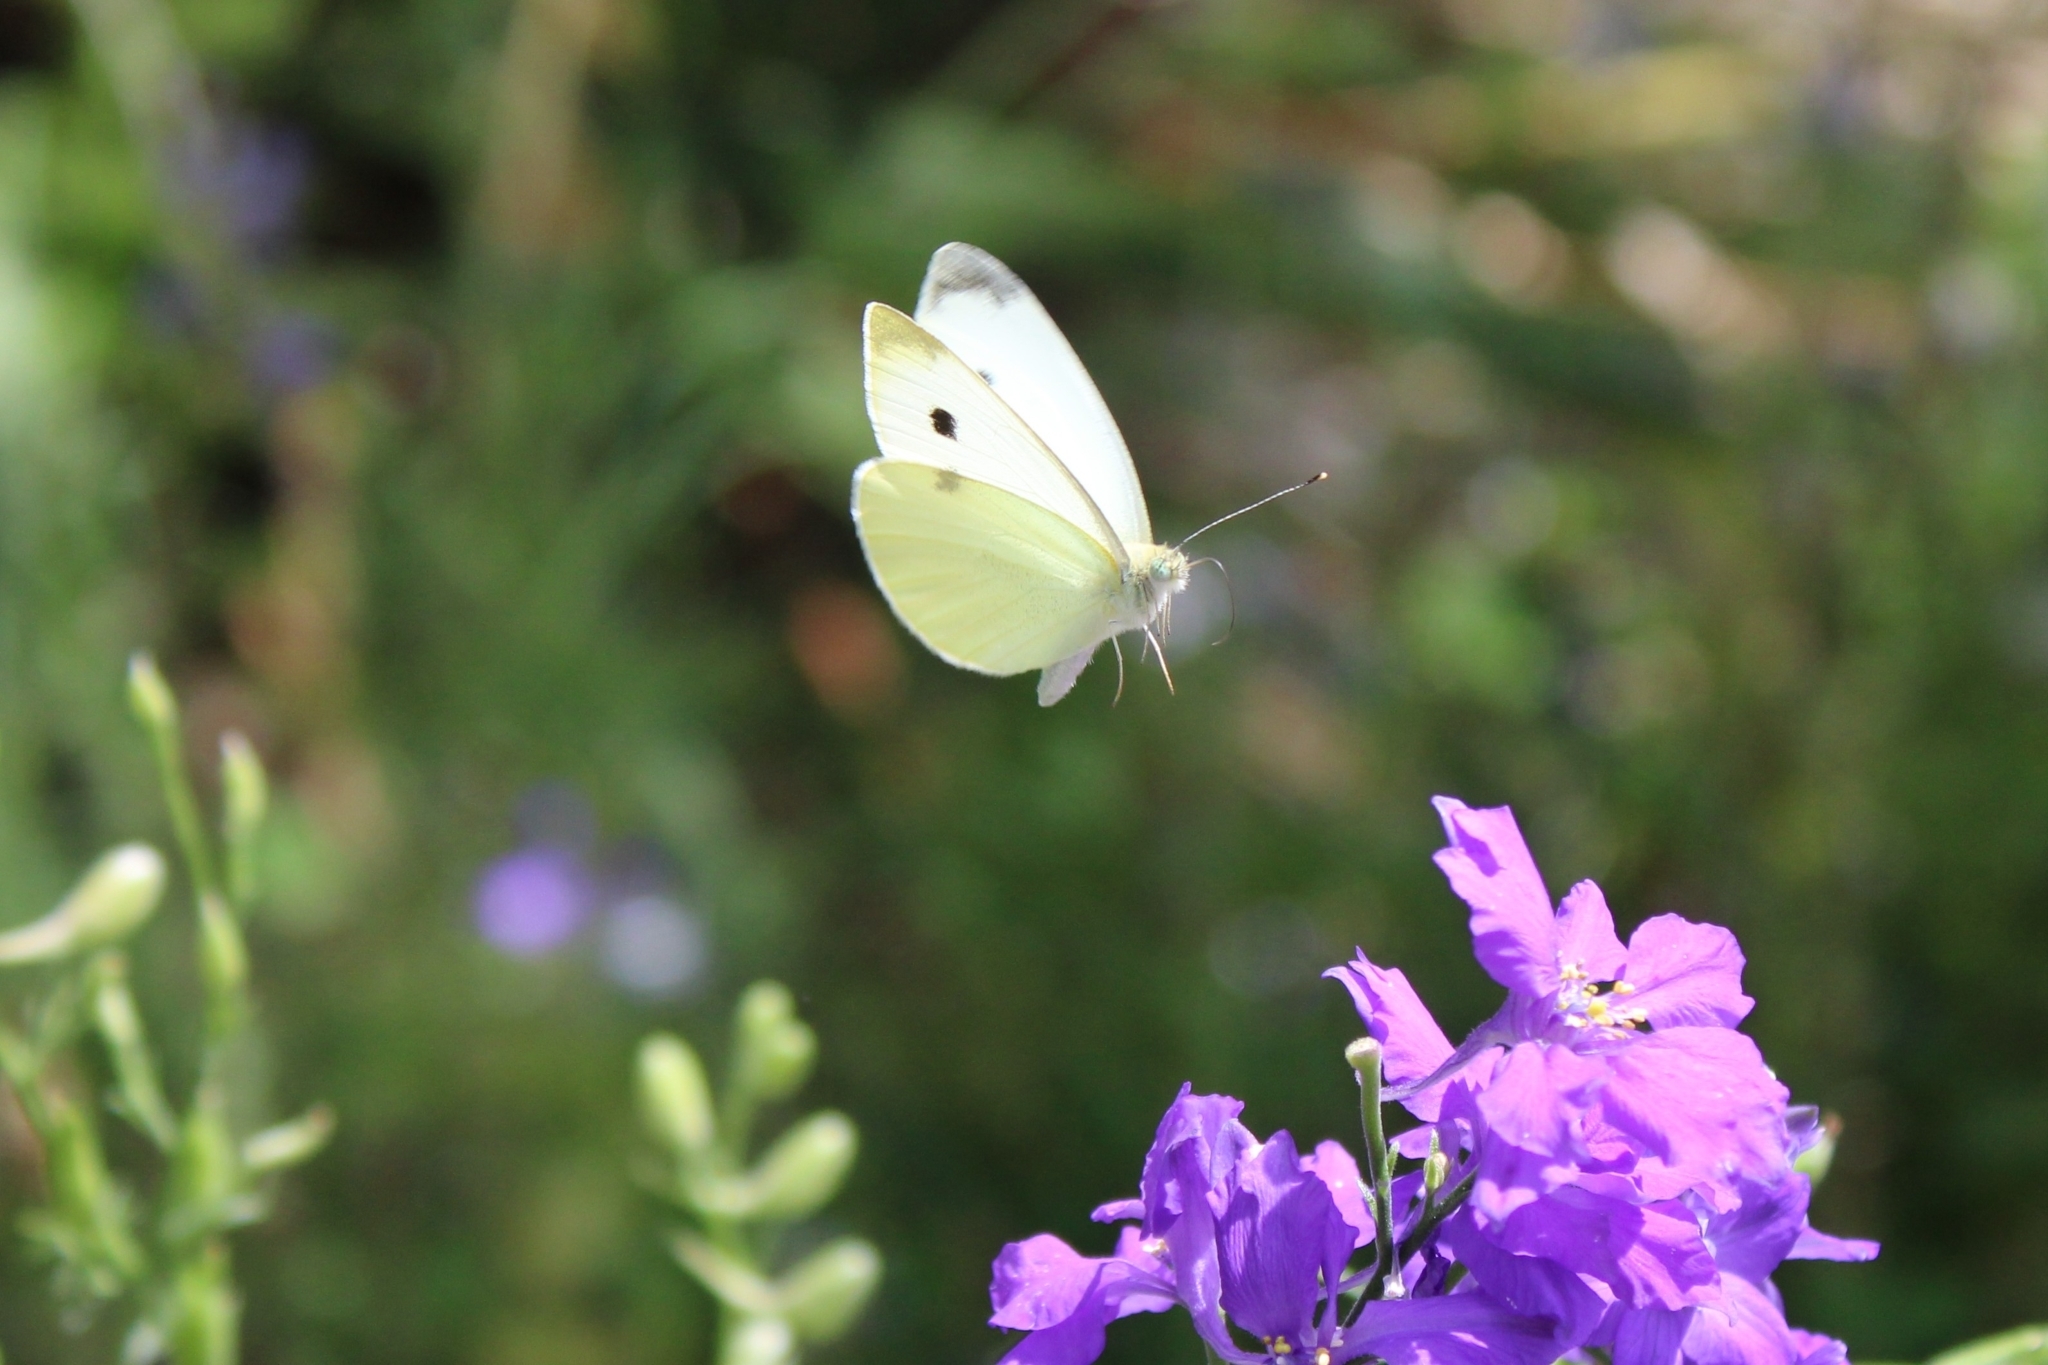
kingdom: Animalia
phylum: Arthropoda
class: Insecta
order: Lepidoptera
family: Pieridae
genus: Pieris
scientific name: Pieris rapae
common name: Small white
